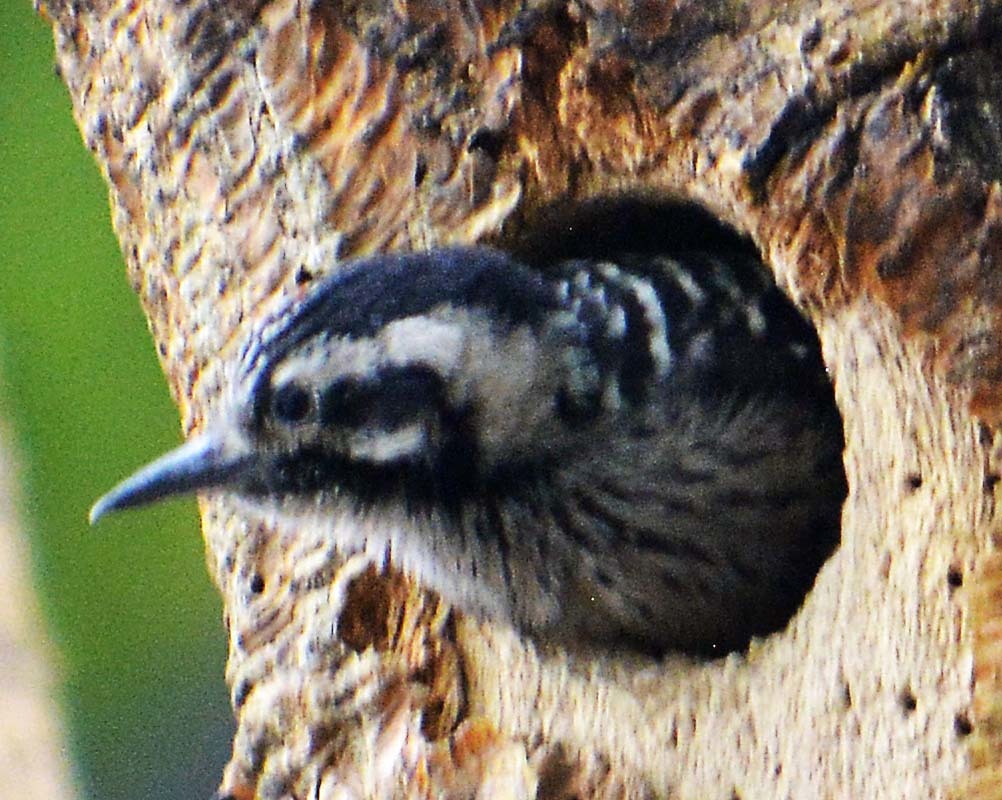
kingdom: Animalia
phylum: Chordata
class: Aves
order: Piciformes
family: Picidae
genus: Dryobates
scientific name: Dryobates scalaris
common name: Ladder-backed woodpecker
